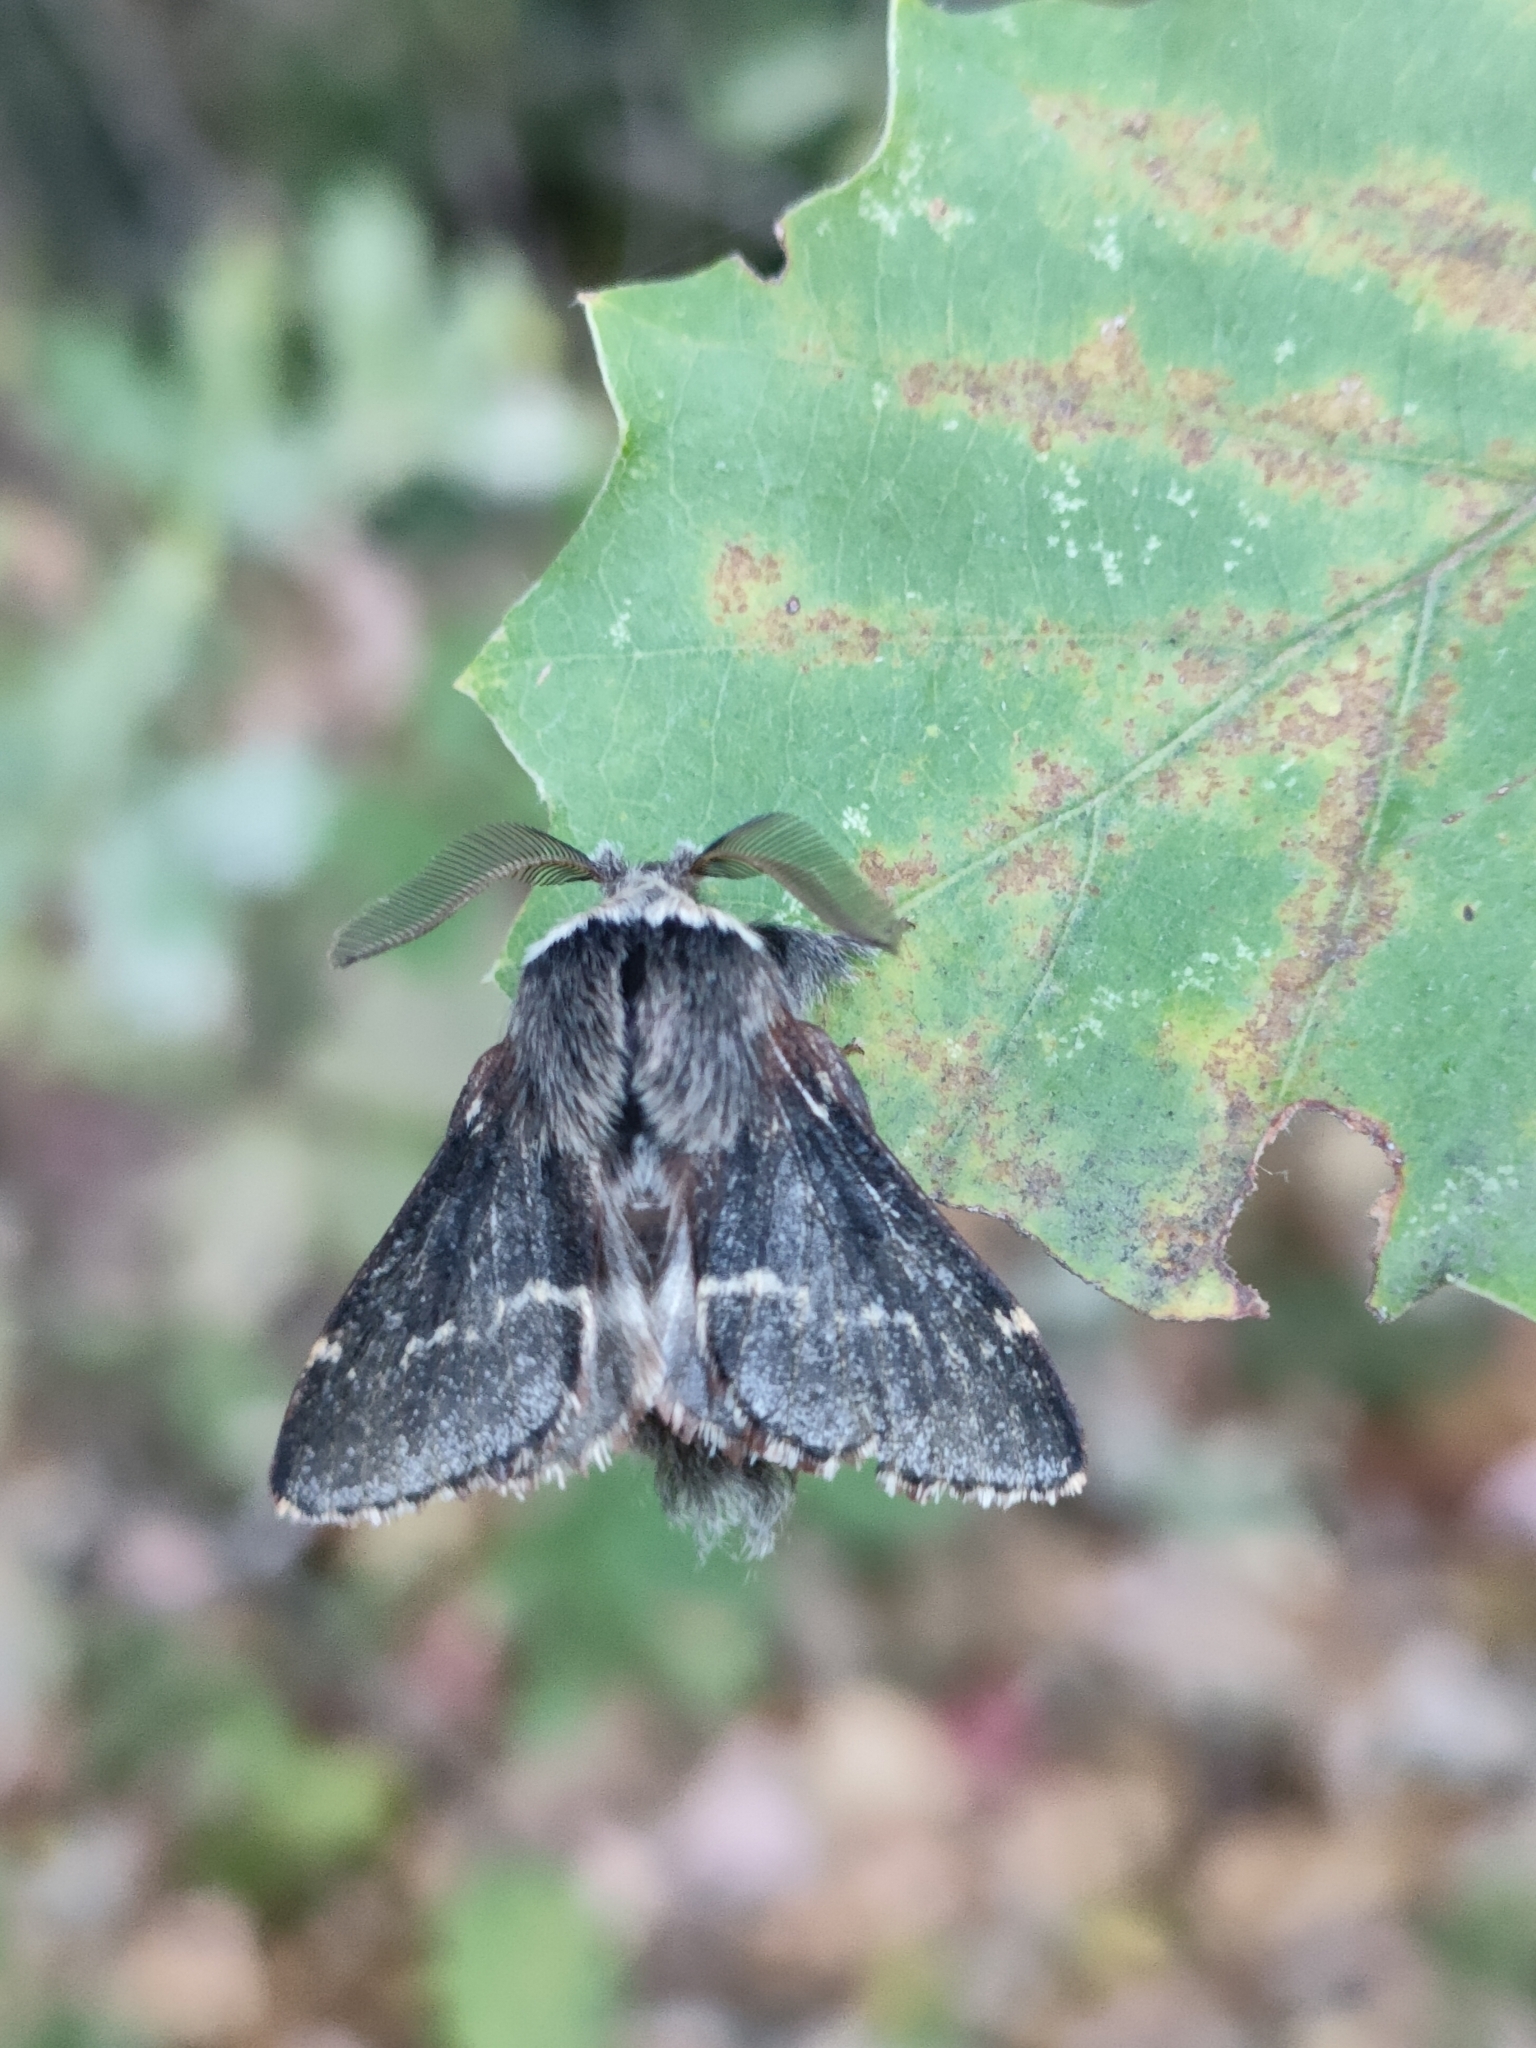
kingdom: Animalia
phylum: Arthropoda
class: Insecta
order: Lepidoptera
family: Lasiocampidae
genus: Poecilocampa
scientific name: Poecilocampa populi
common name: December moth
